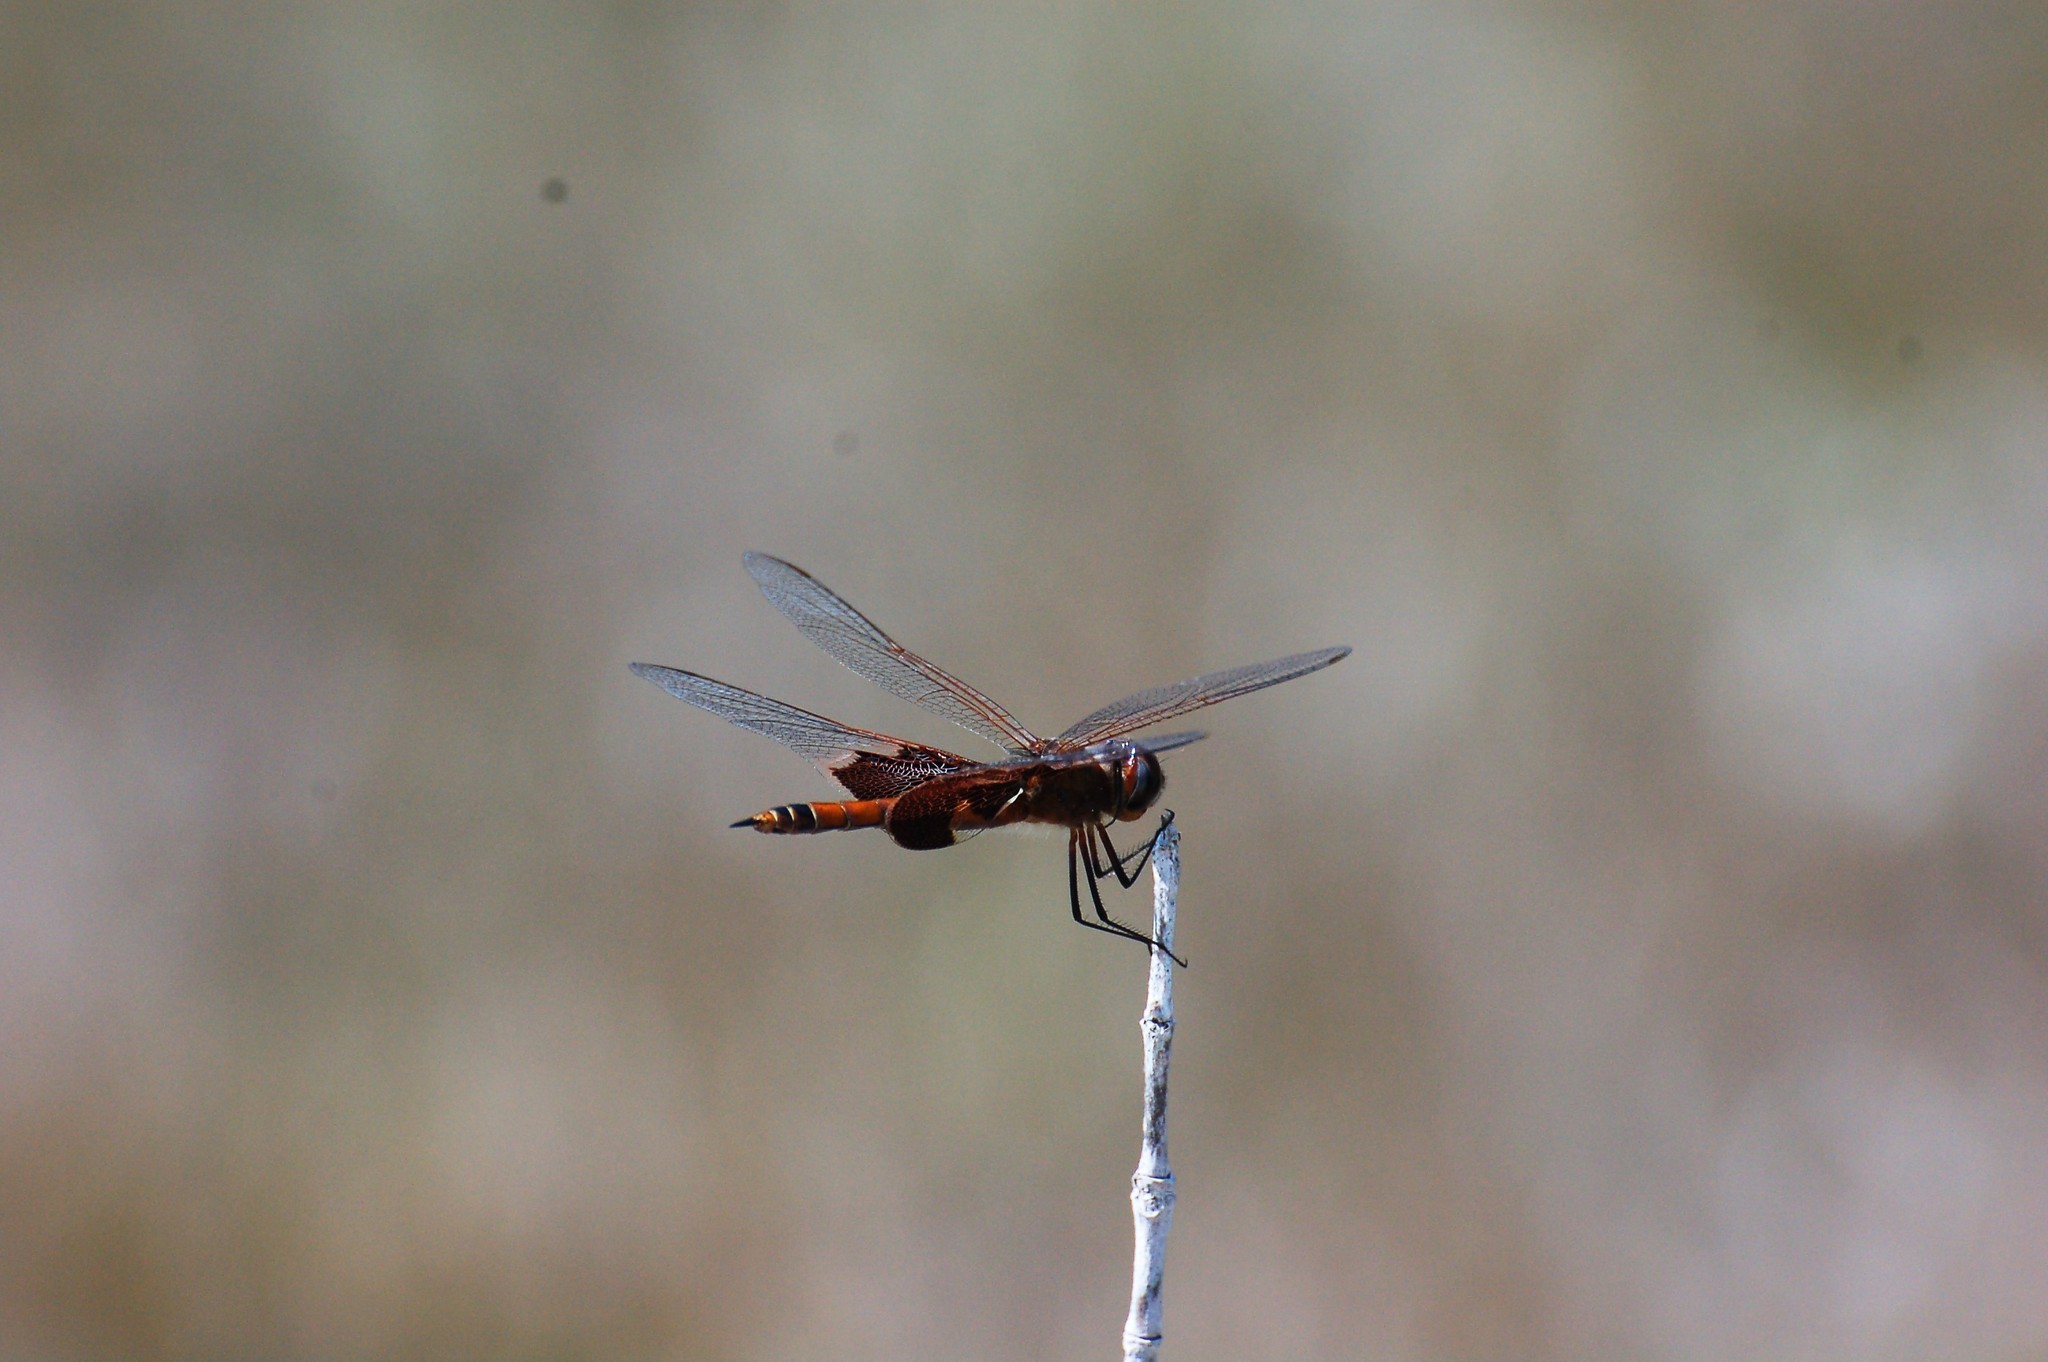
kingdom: Animalia
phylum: Arthropoda
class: Insecta
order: Odonata
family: Libellulidae
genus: Tramea
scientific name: Tramea onusta
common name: Red saddlebags
